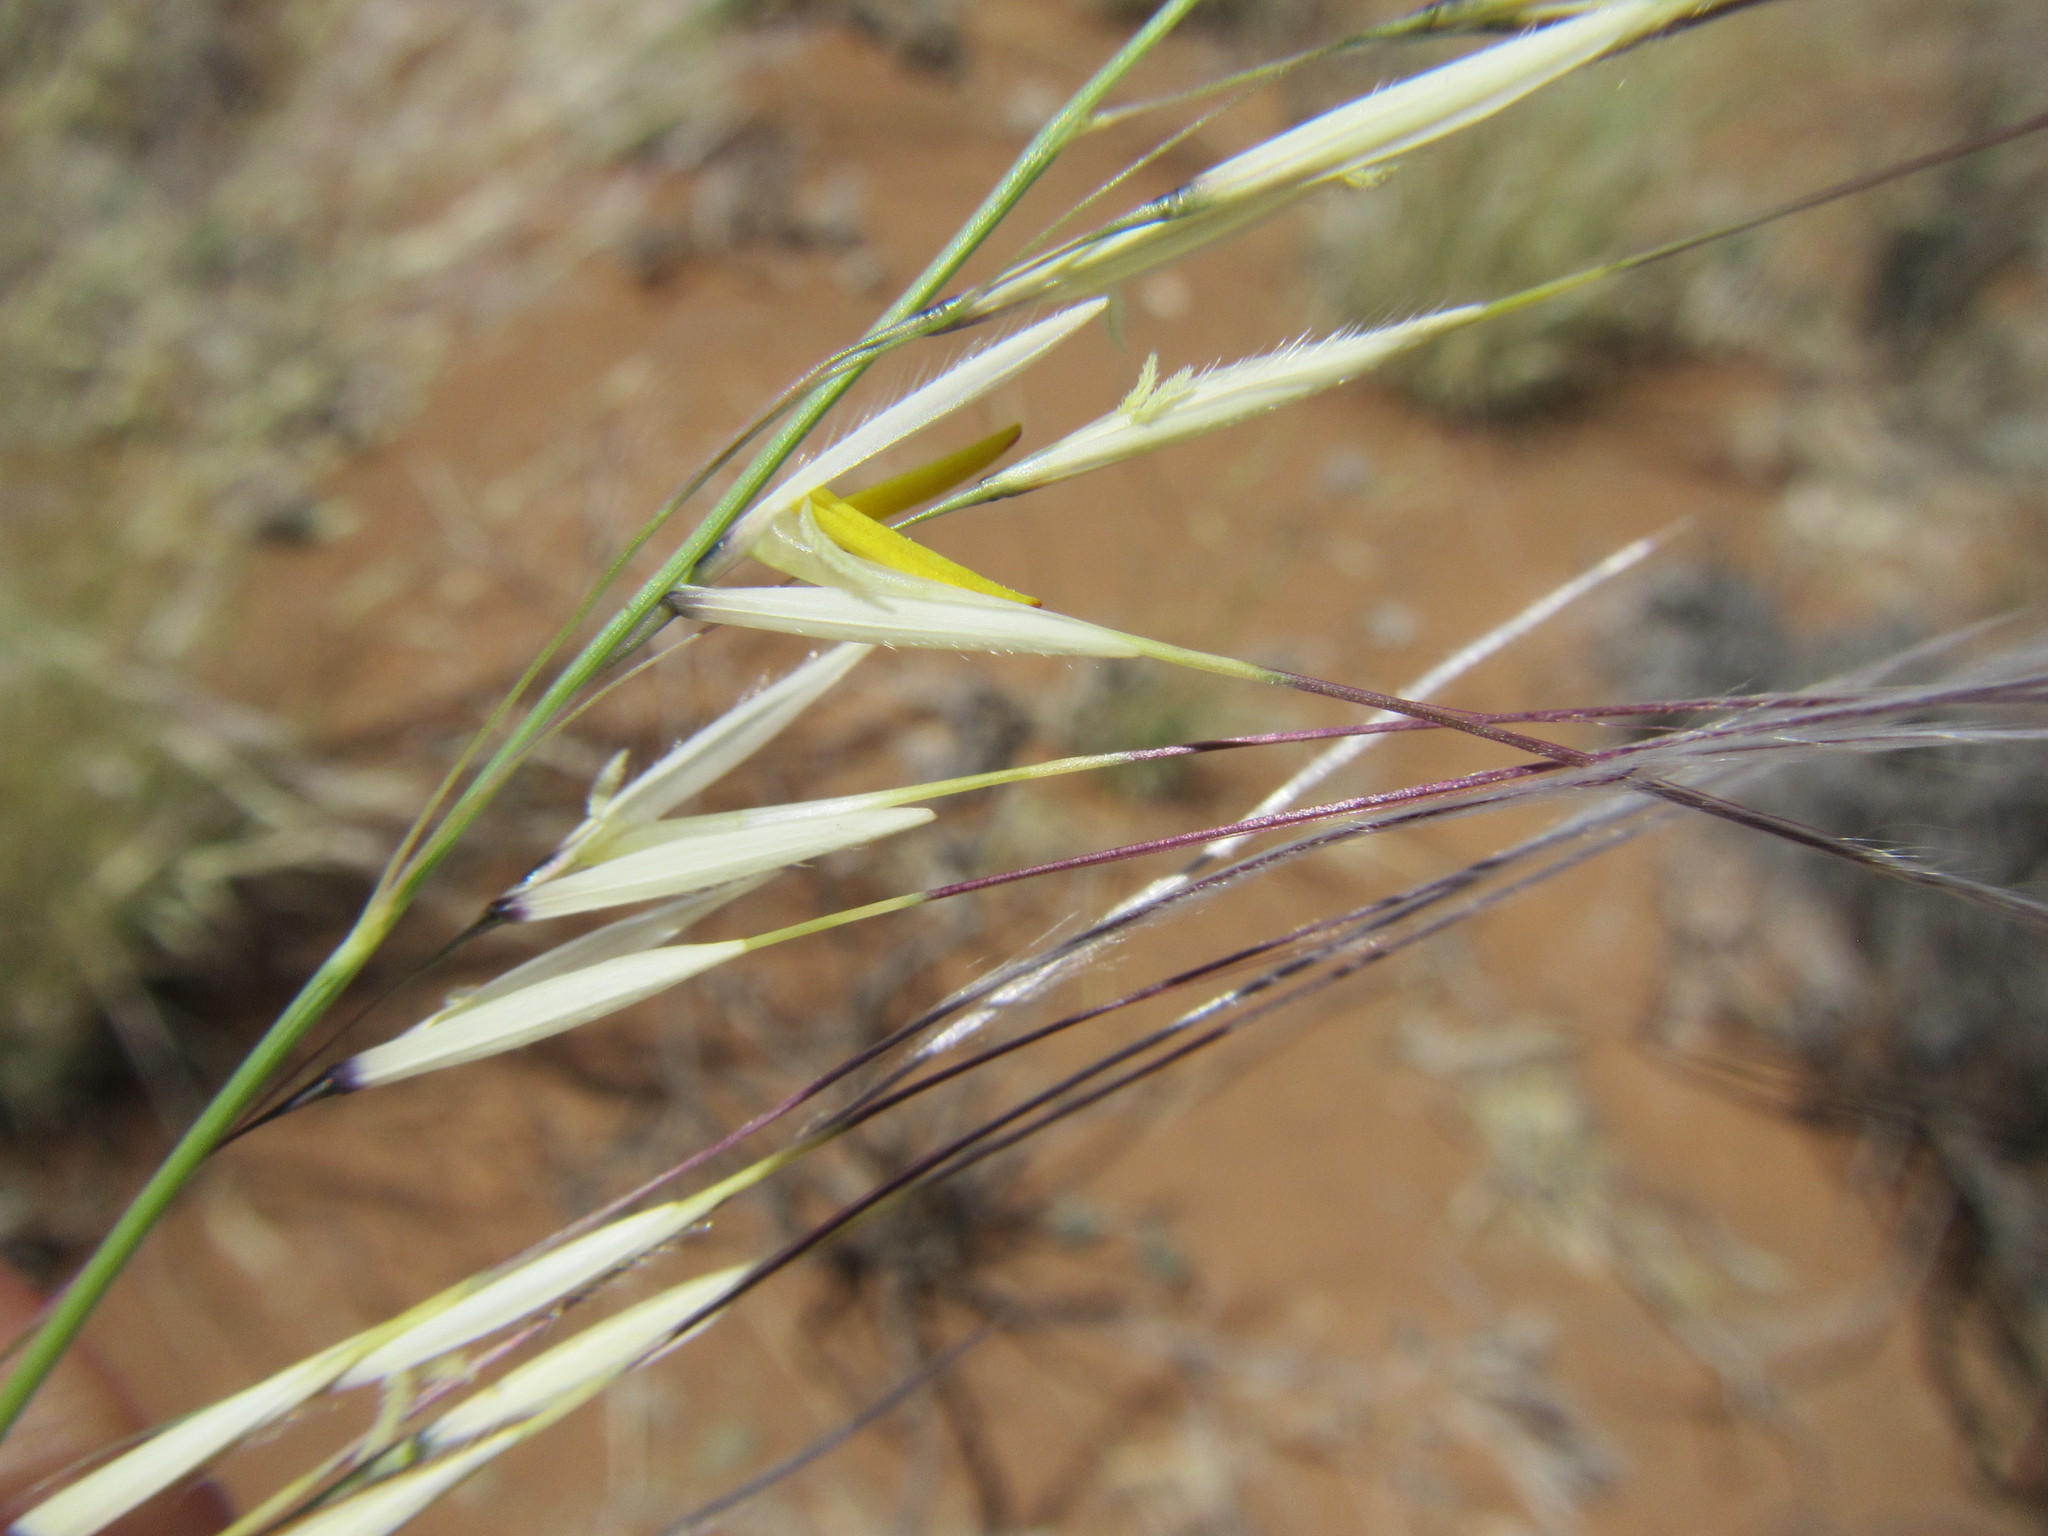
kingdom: Plantae
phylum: Tracheophyta
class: Liliopsida
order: Poales
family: Poaceae
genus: Stipagrostis
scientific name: Stipagrostis ciliata
